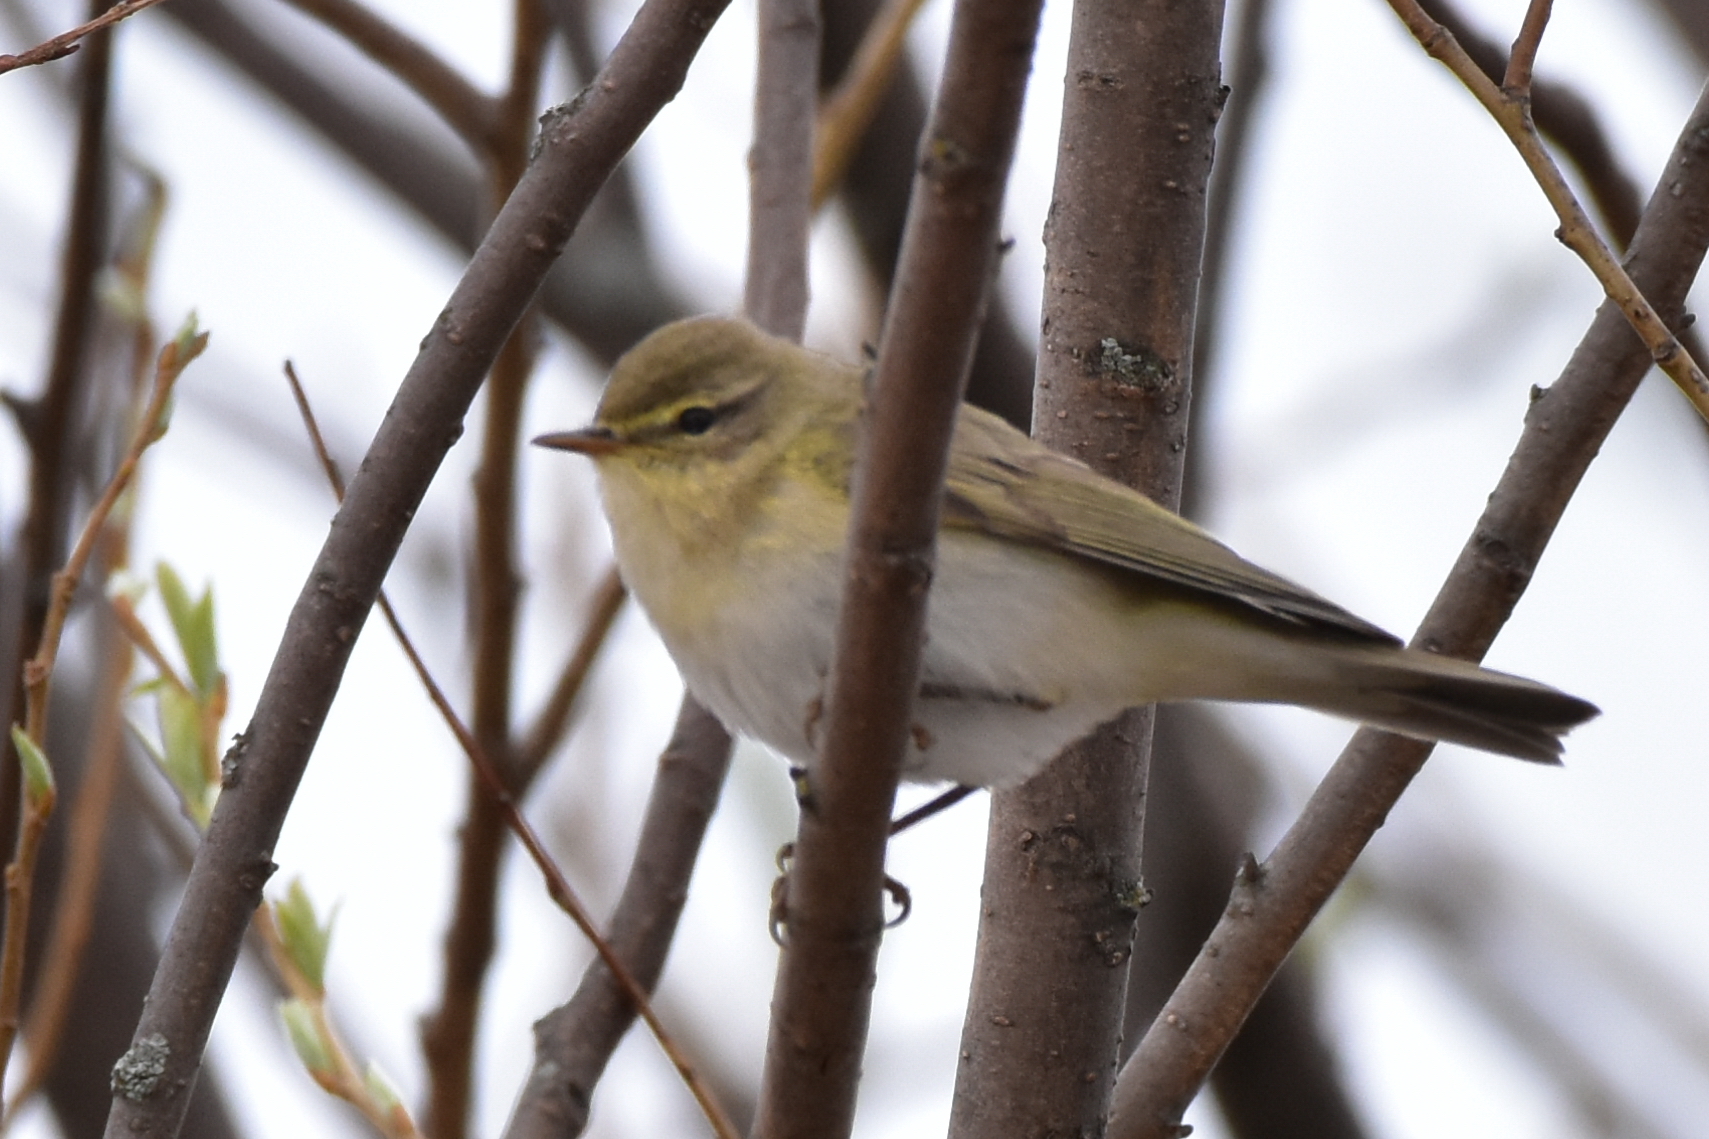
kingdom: Animalia
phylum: Chordata
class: Aves
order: Passeriformes
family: Phylloscopidae
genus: Phylloscopus
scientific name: Phylloscopus trochilus
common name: Willow warbler
